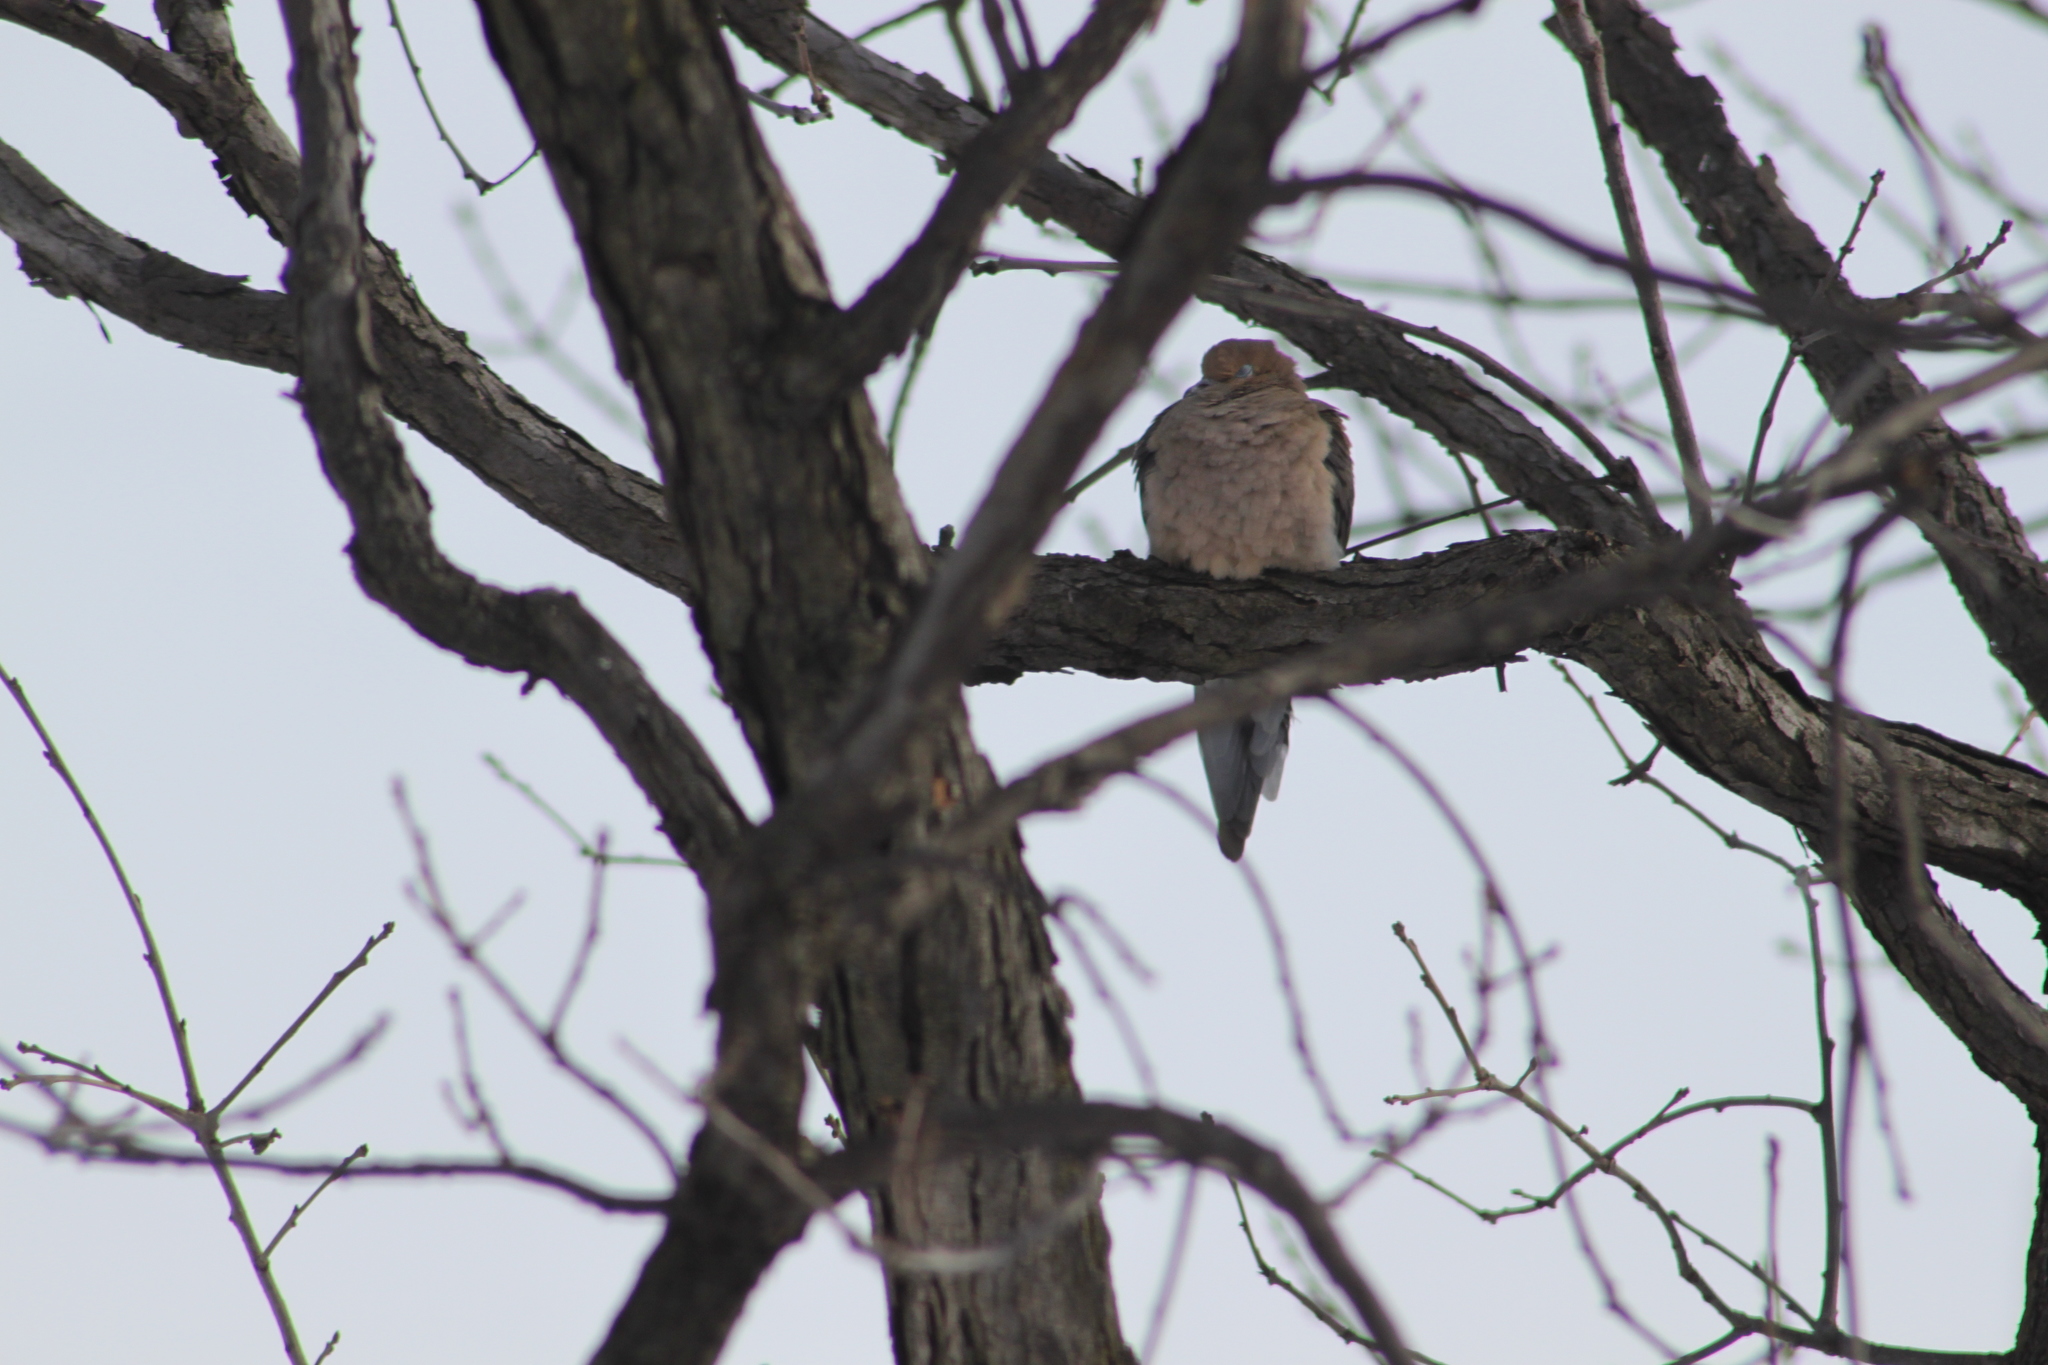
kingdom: Animalia
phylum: Chordata
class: Aves
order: Columbiformes
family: Columbidae
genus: Zenaida
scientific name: Zenaida macroura
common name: Mourning dove
